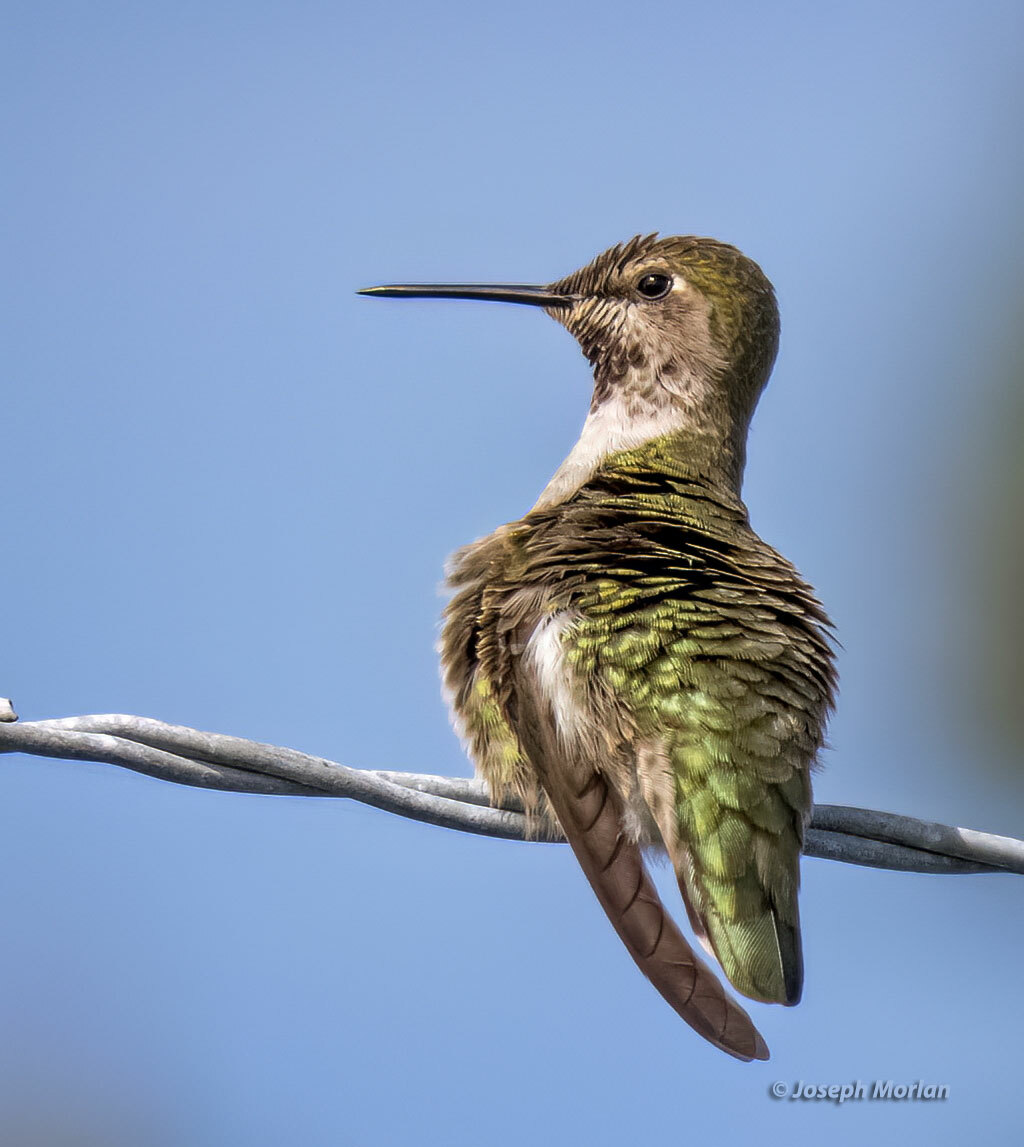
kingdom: Animalia
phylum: Chordata
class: Aves
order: Apodiformes
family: Trochilidae
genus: Calypte
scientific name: Calypte anna
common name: Anna's hummingbird
